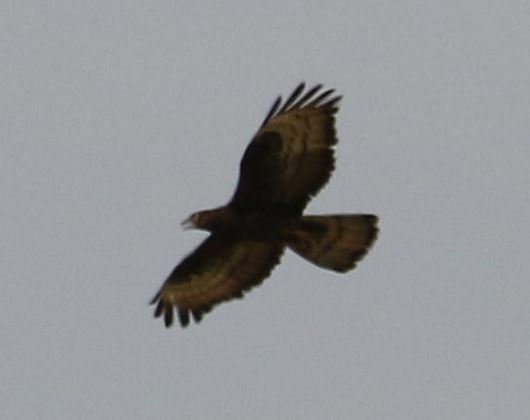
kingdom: Animalia
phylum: Chordata
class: Aves
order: Accipitriformes
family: Accipitridae
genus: Pernis
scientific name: Pernis apivorus
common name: European honey buzzard
